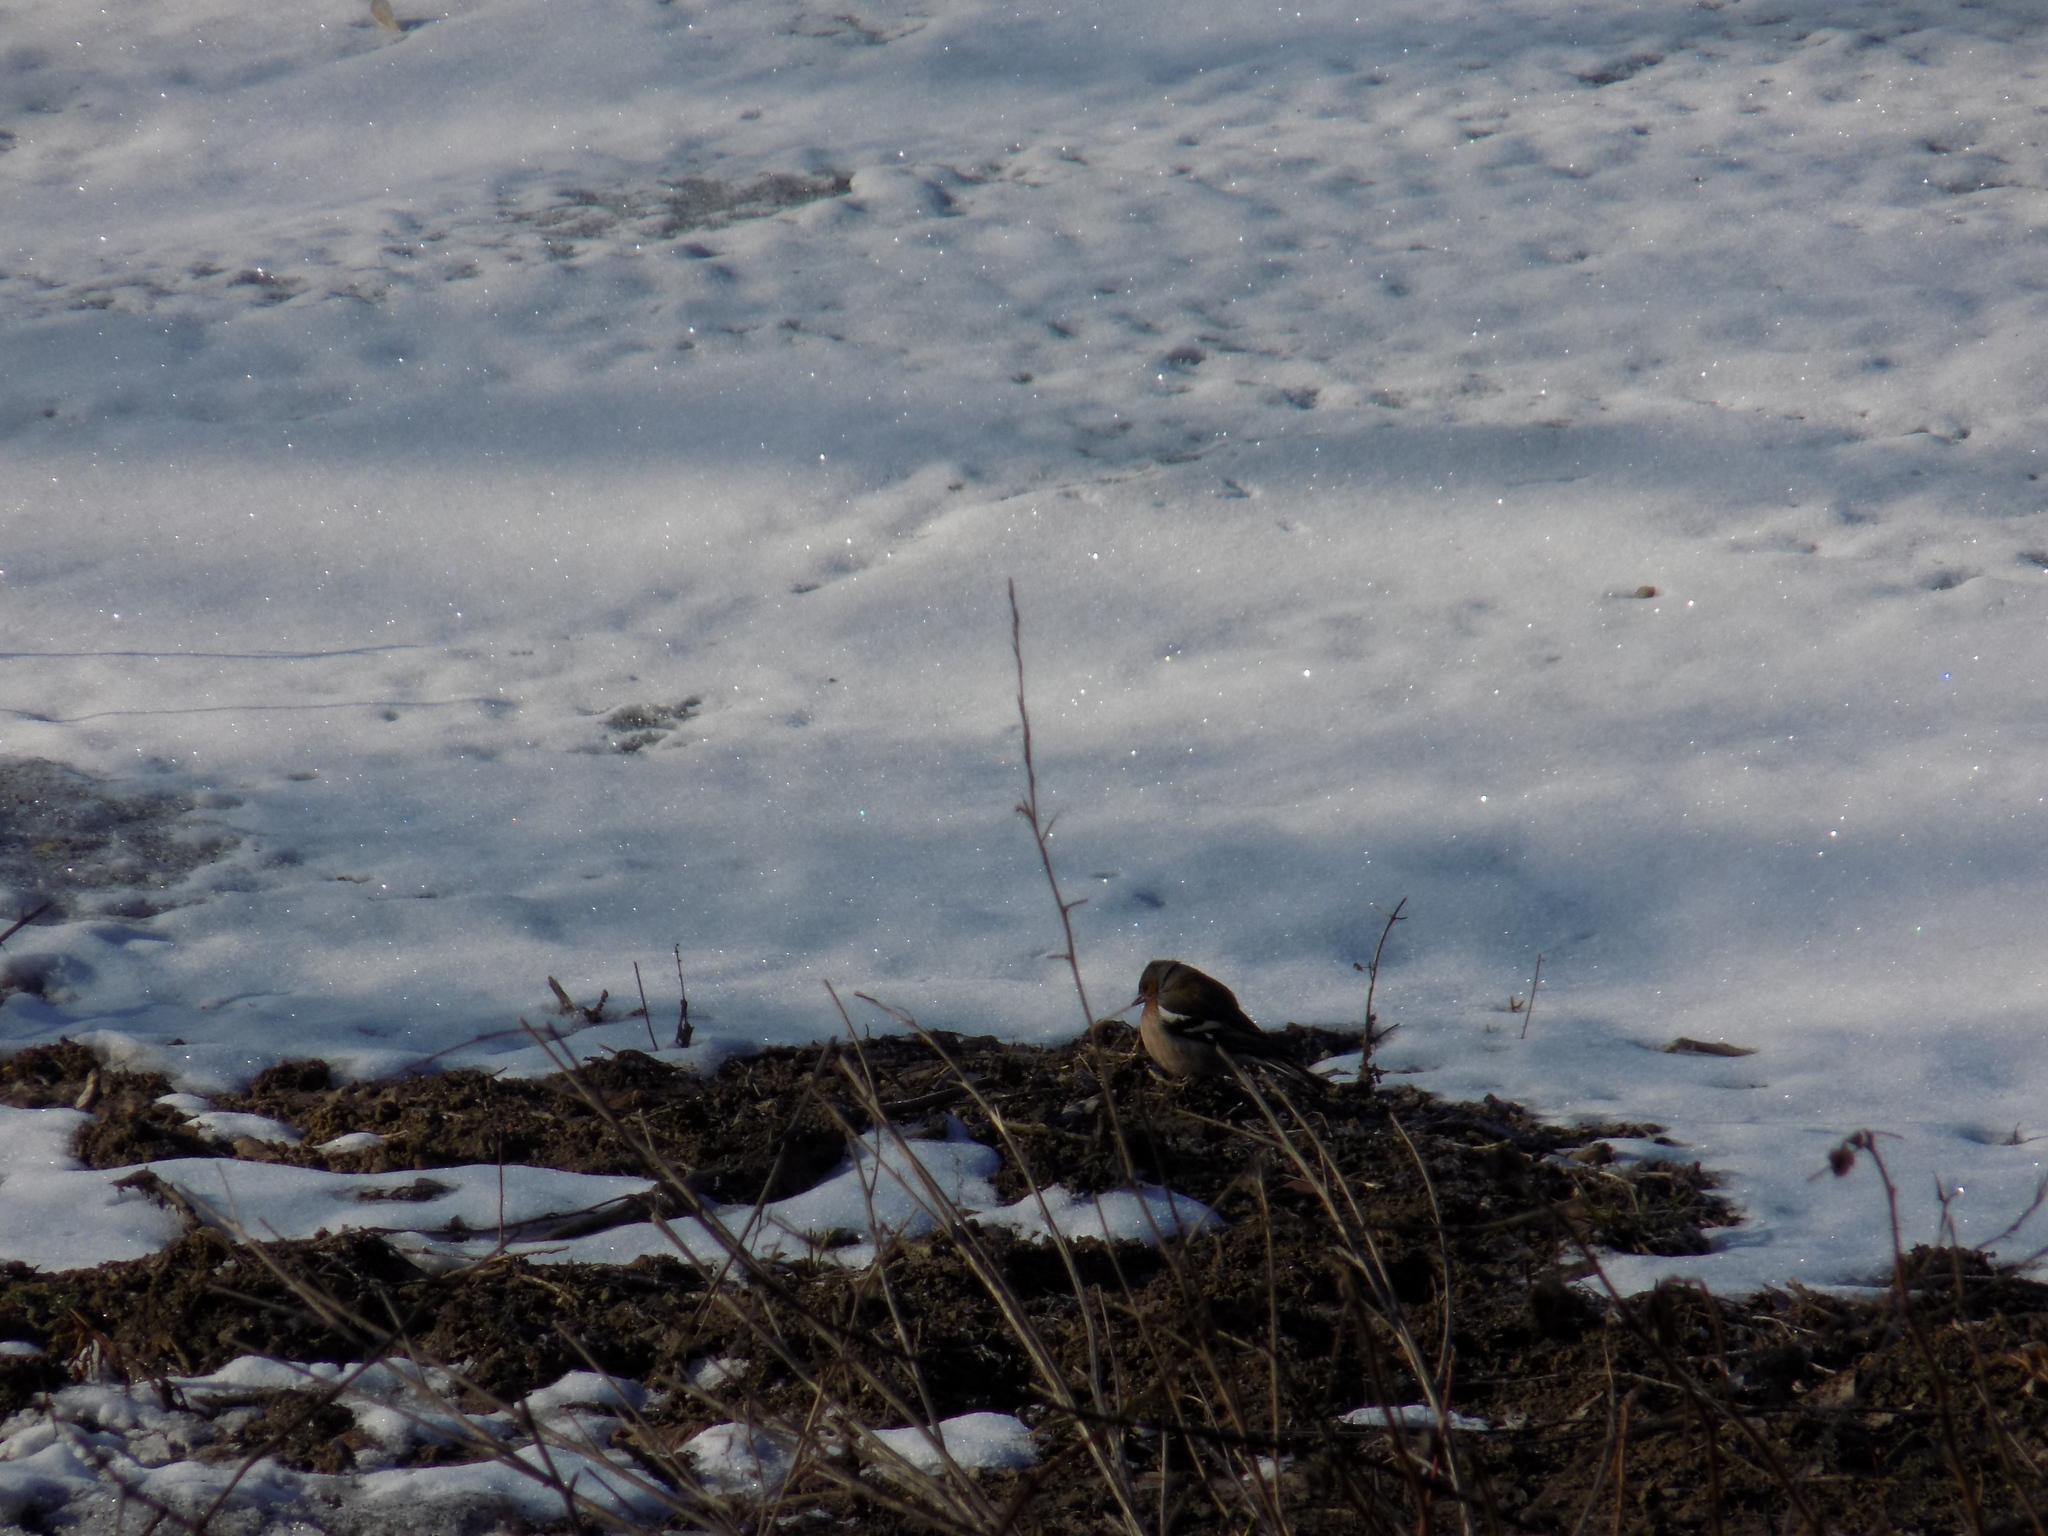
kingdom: Animalia
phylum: Chordata
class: Aves
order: Passeriformes
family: Fringillidae
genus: Fringilla
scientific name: Fringilla coelebs
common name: Common chaffinch
